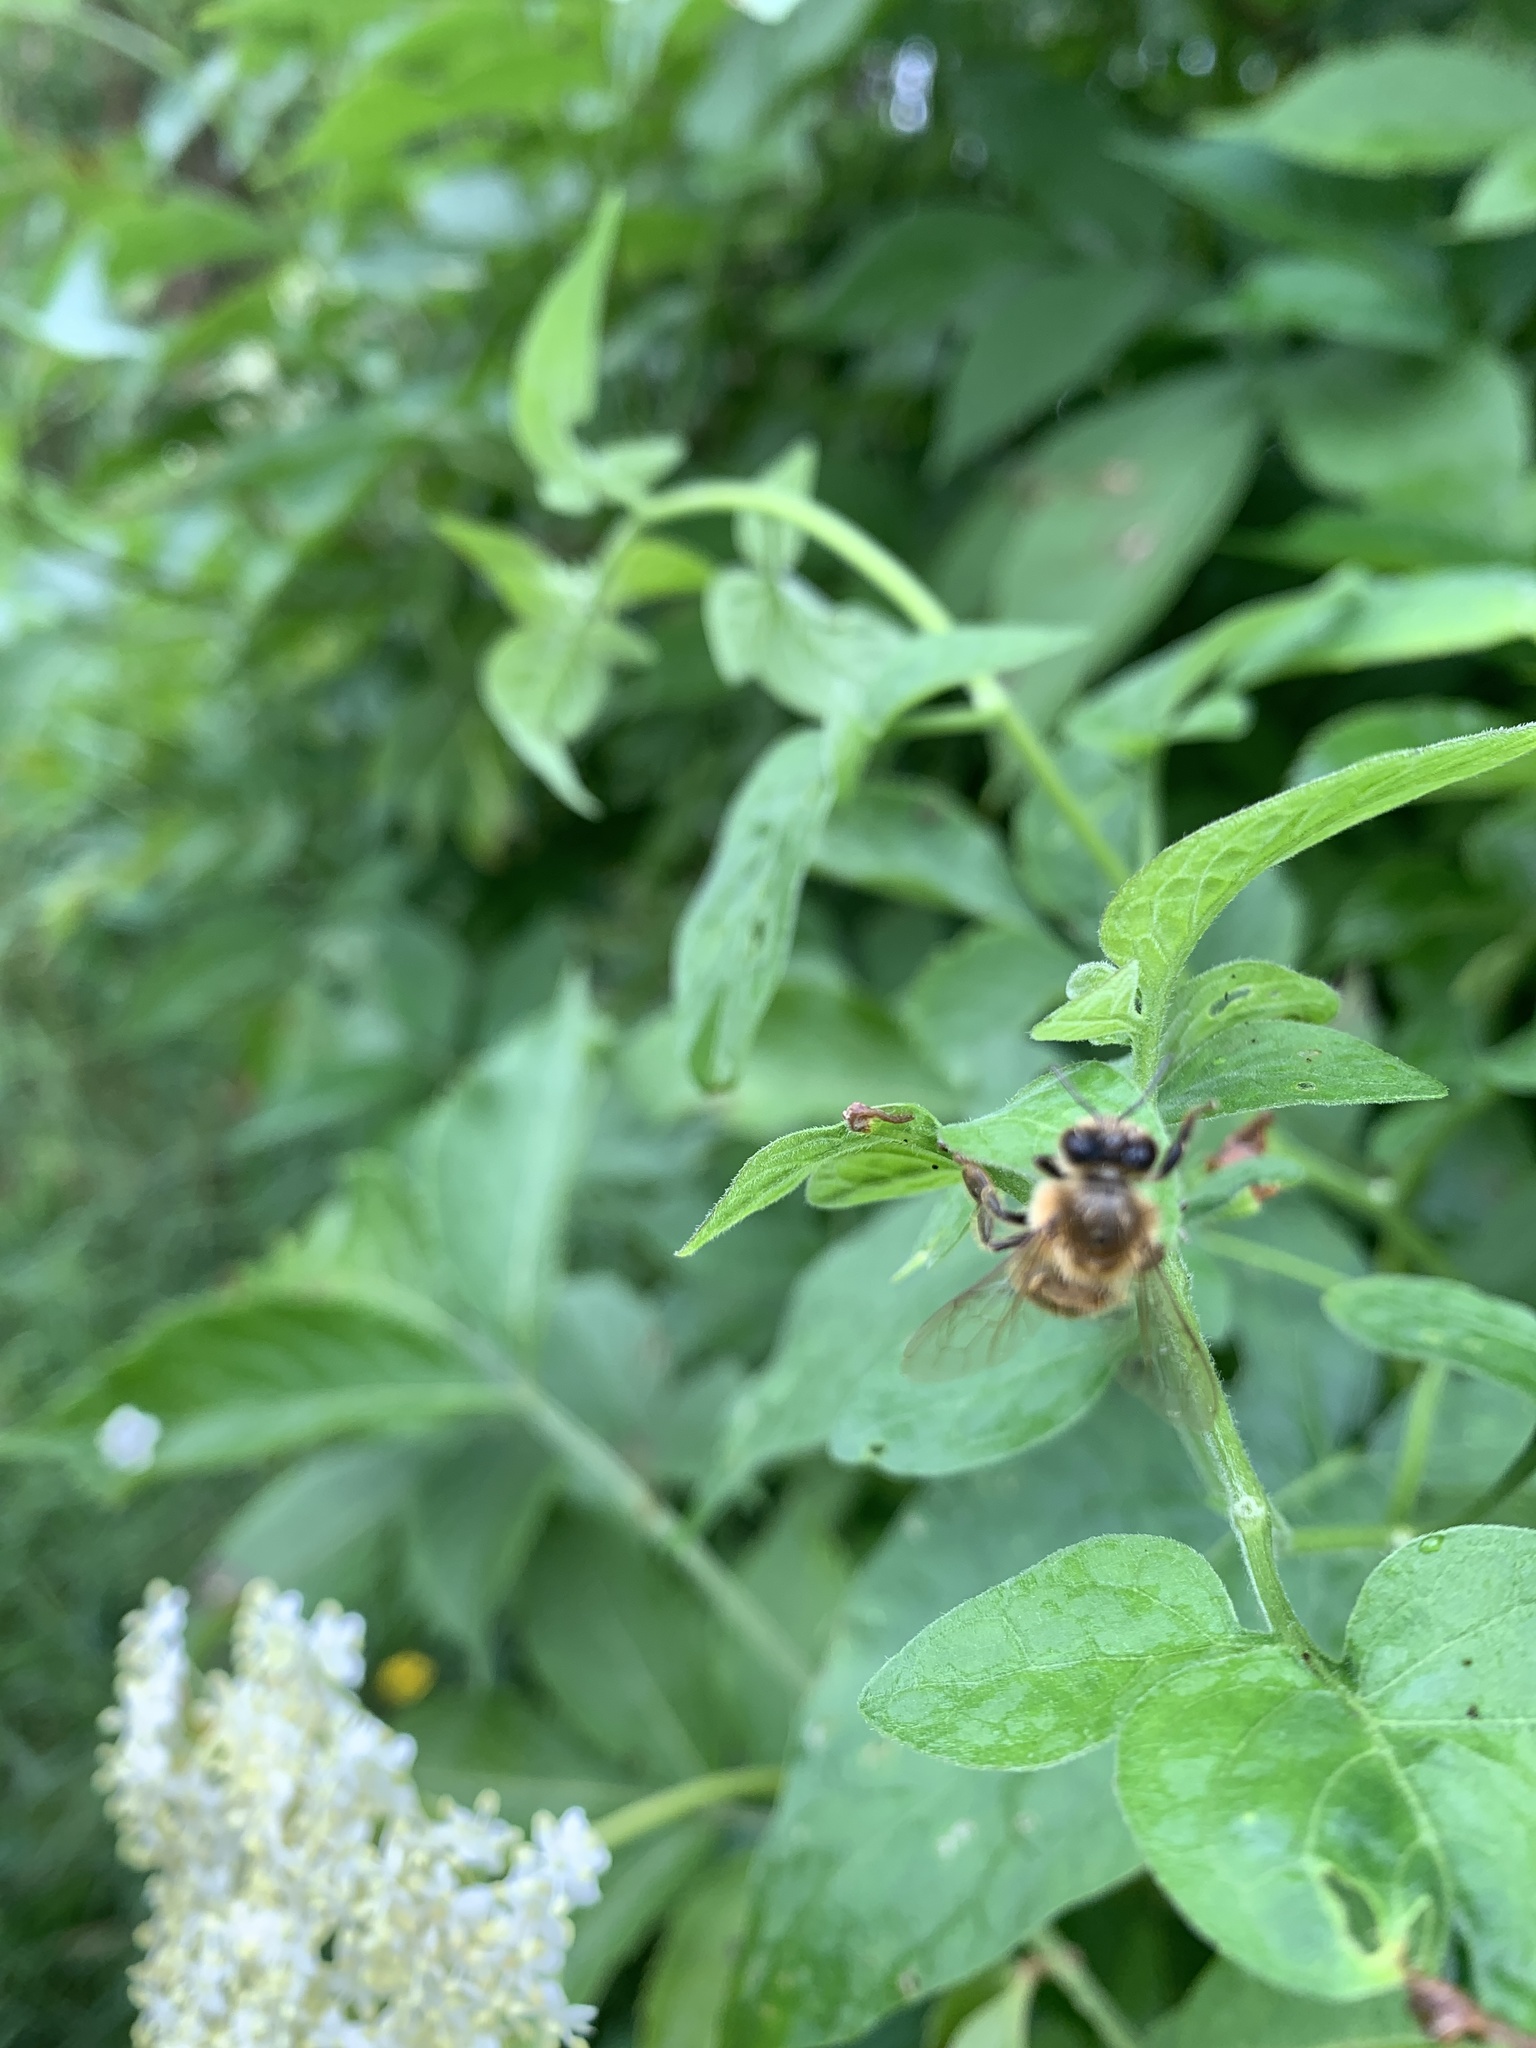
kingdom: Animalia
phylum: Arthropoda
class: Insecta
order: Hymenoptera
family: Apidae
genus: Apis
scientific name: Apis mellifera
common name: Honey bee
